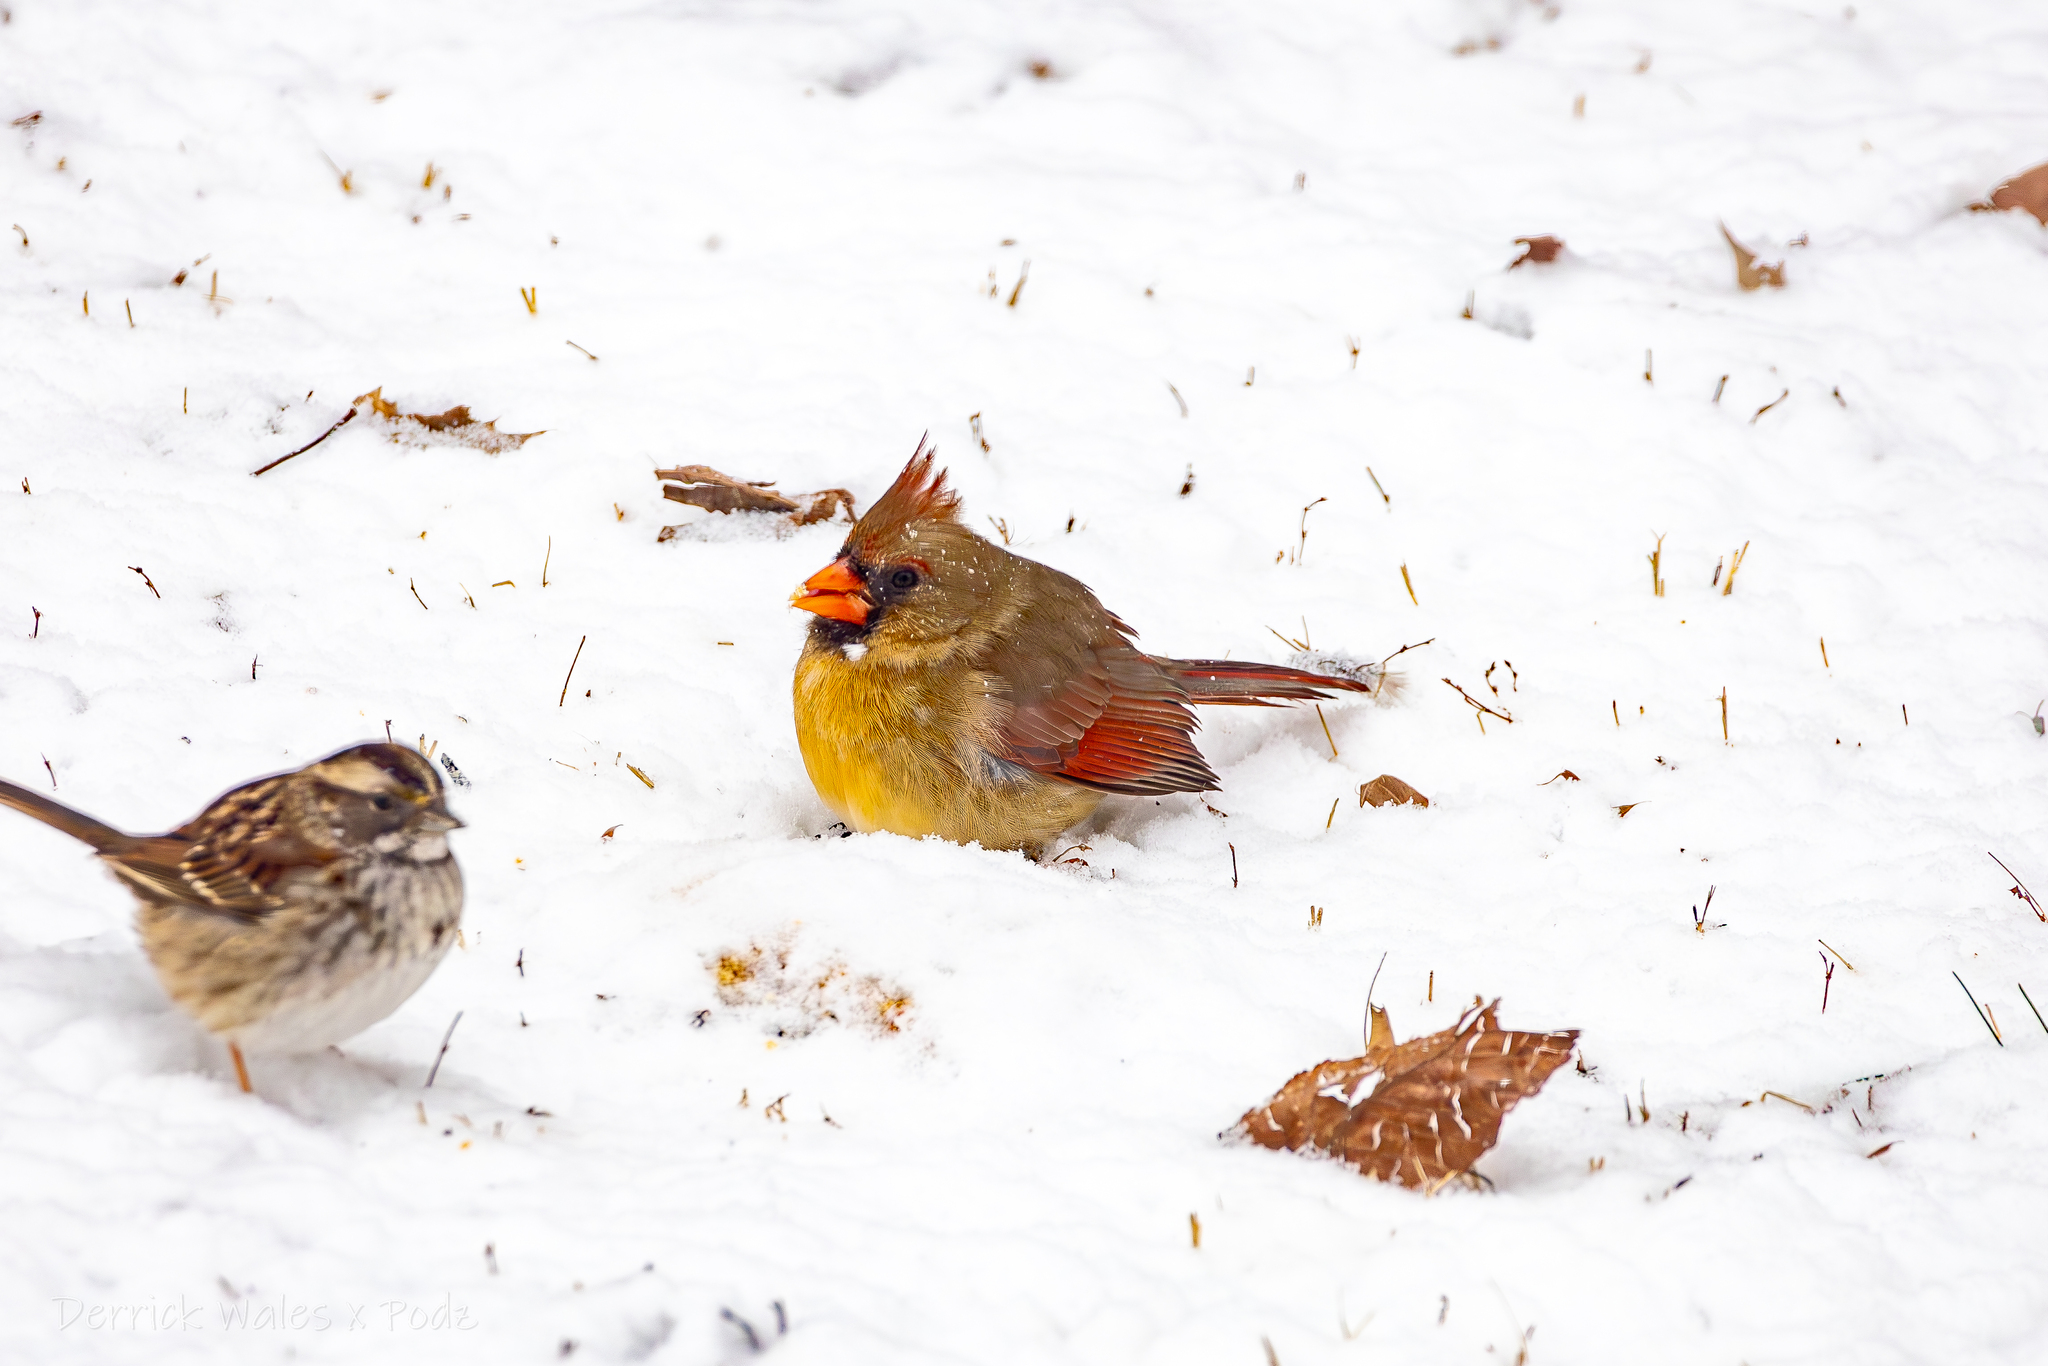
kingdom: Animalia
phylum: Chordata
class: Aves
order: Passeriformes
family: Cardinalidae
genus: Cardinalis
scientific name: Cardinalis cardinalis
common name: Northern cardinal
